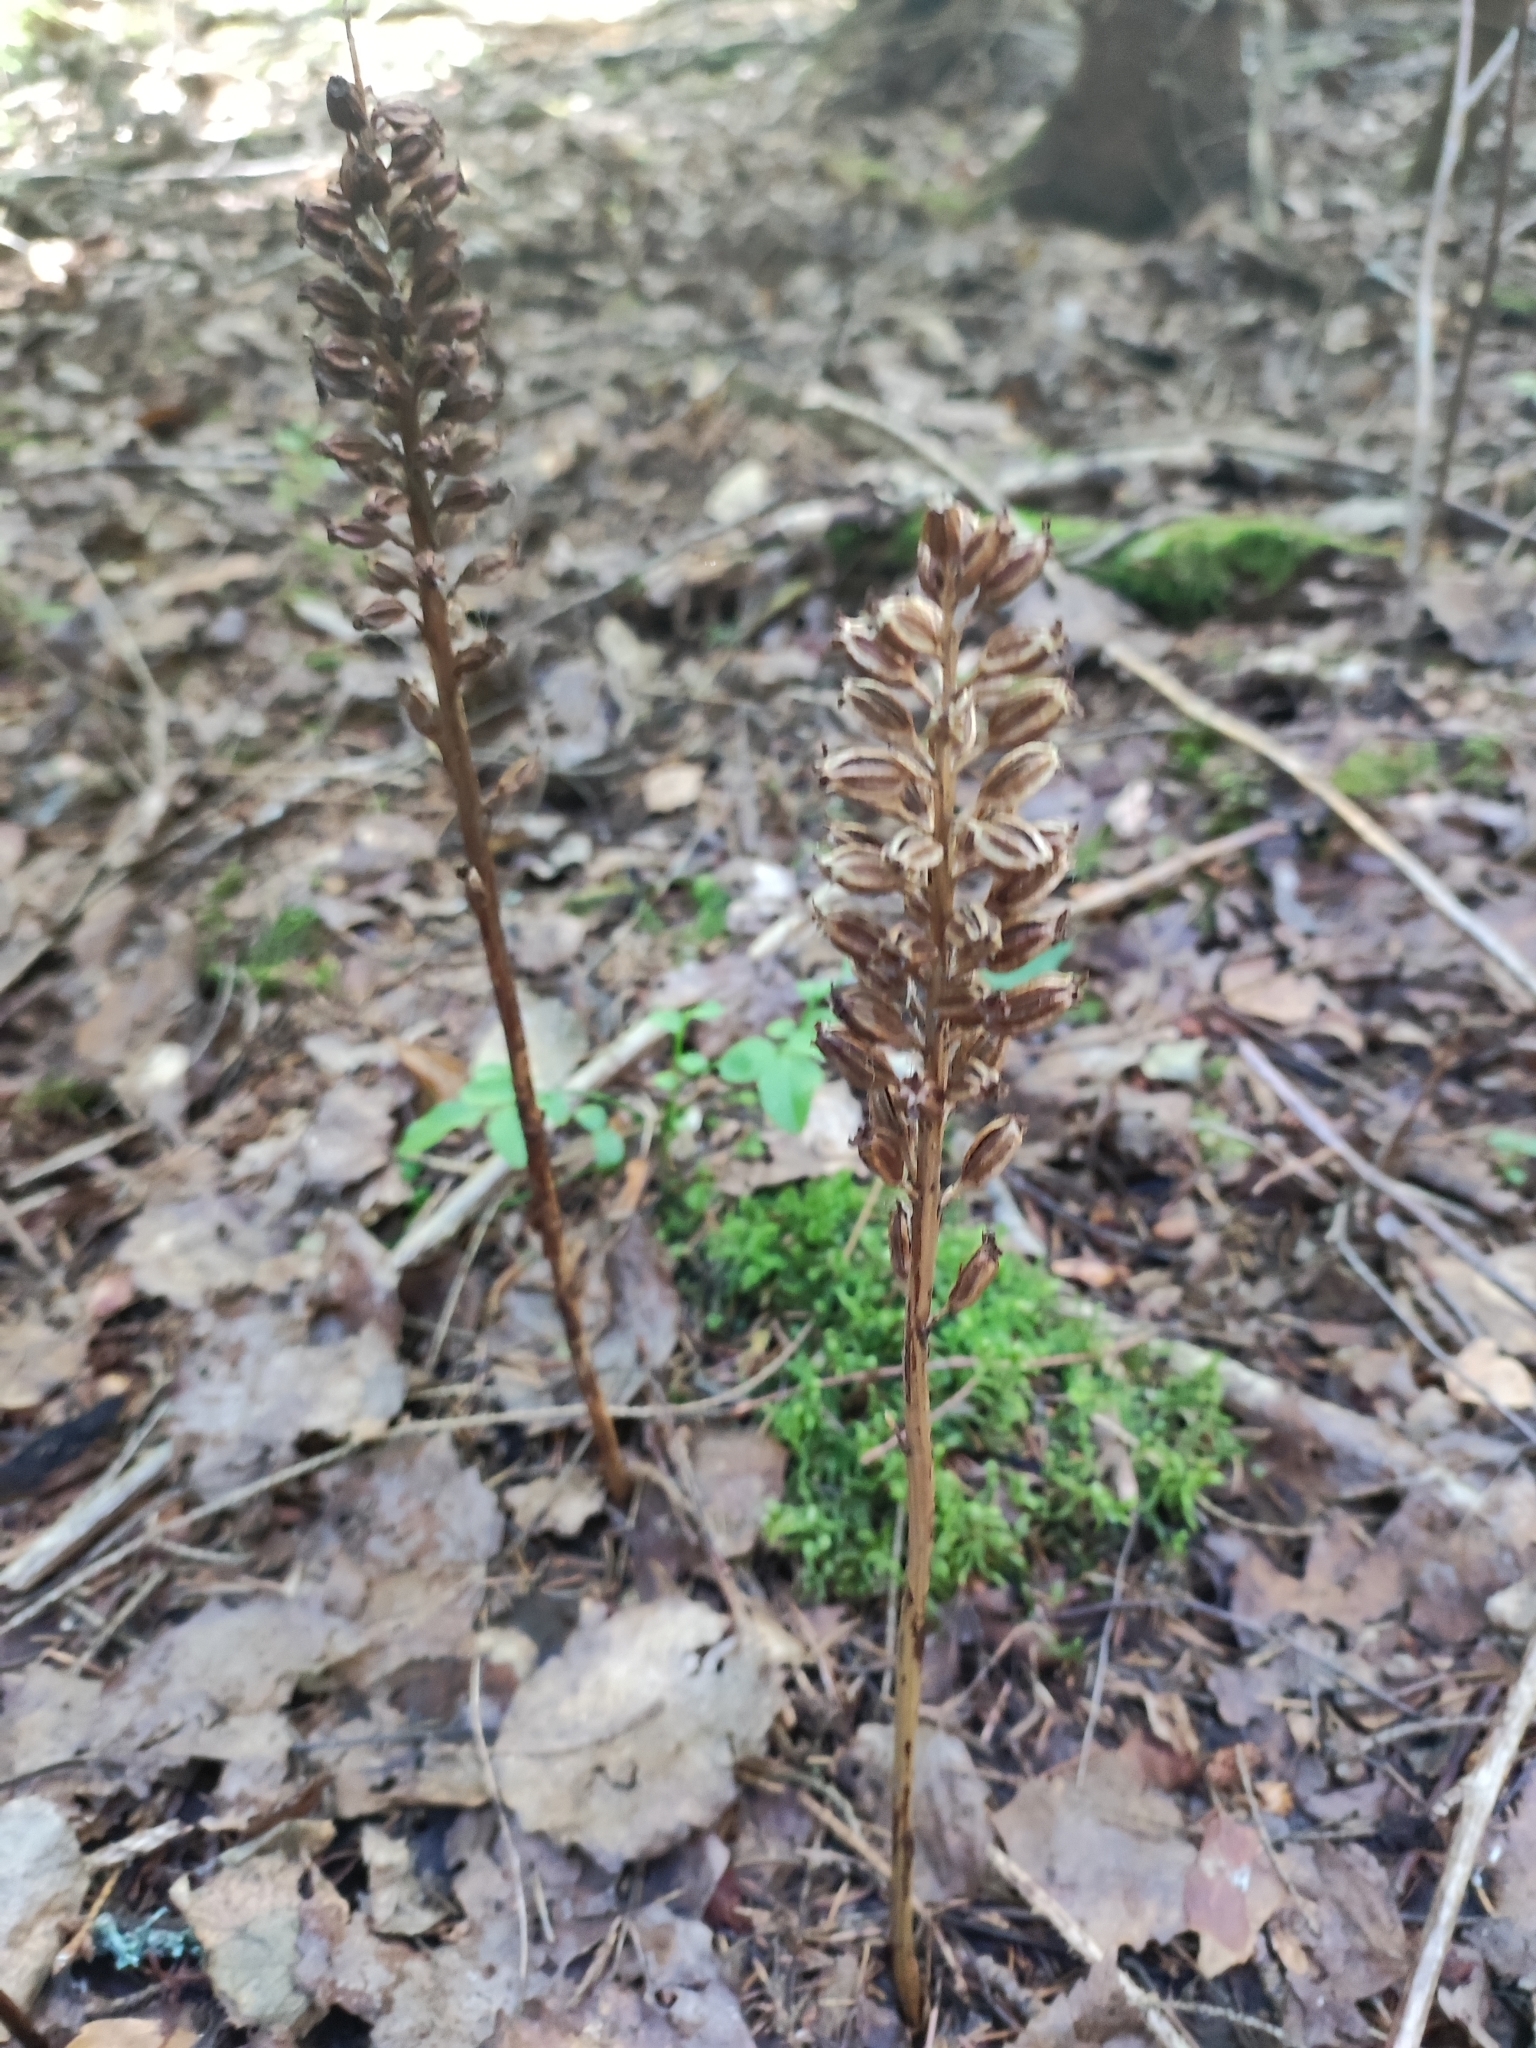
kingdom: Plantae
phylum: Tracheophyta
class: Liliopsida
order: Asparagales
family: Orchidaceae
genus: Neottia
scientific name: Neottia nidus-avis
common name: Bird's-nest orchid
